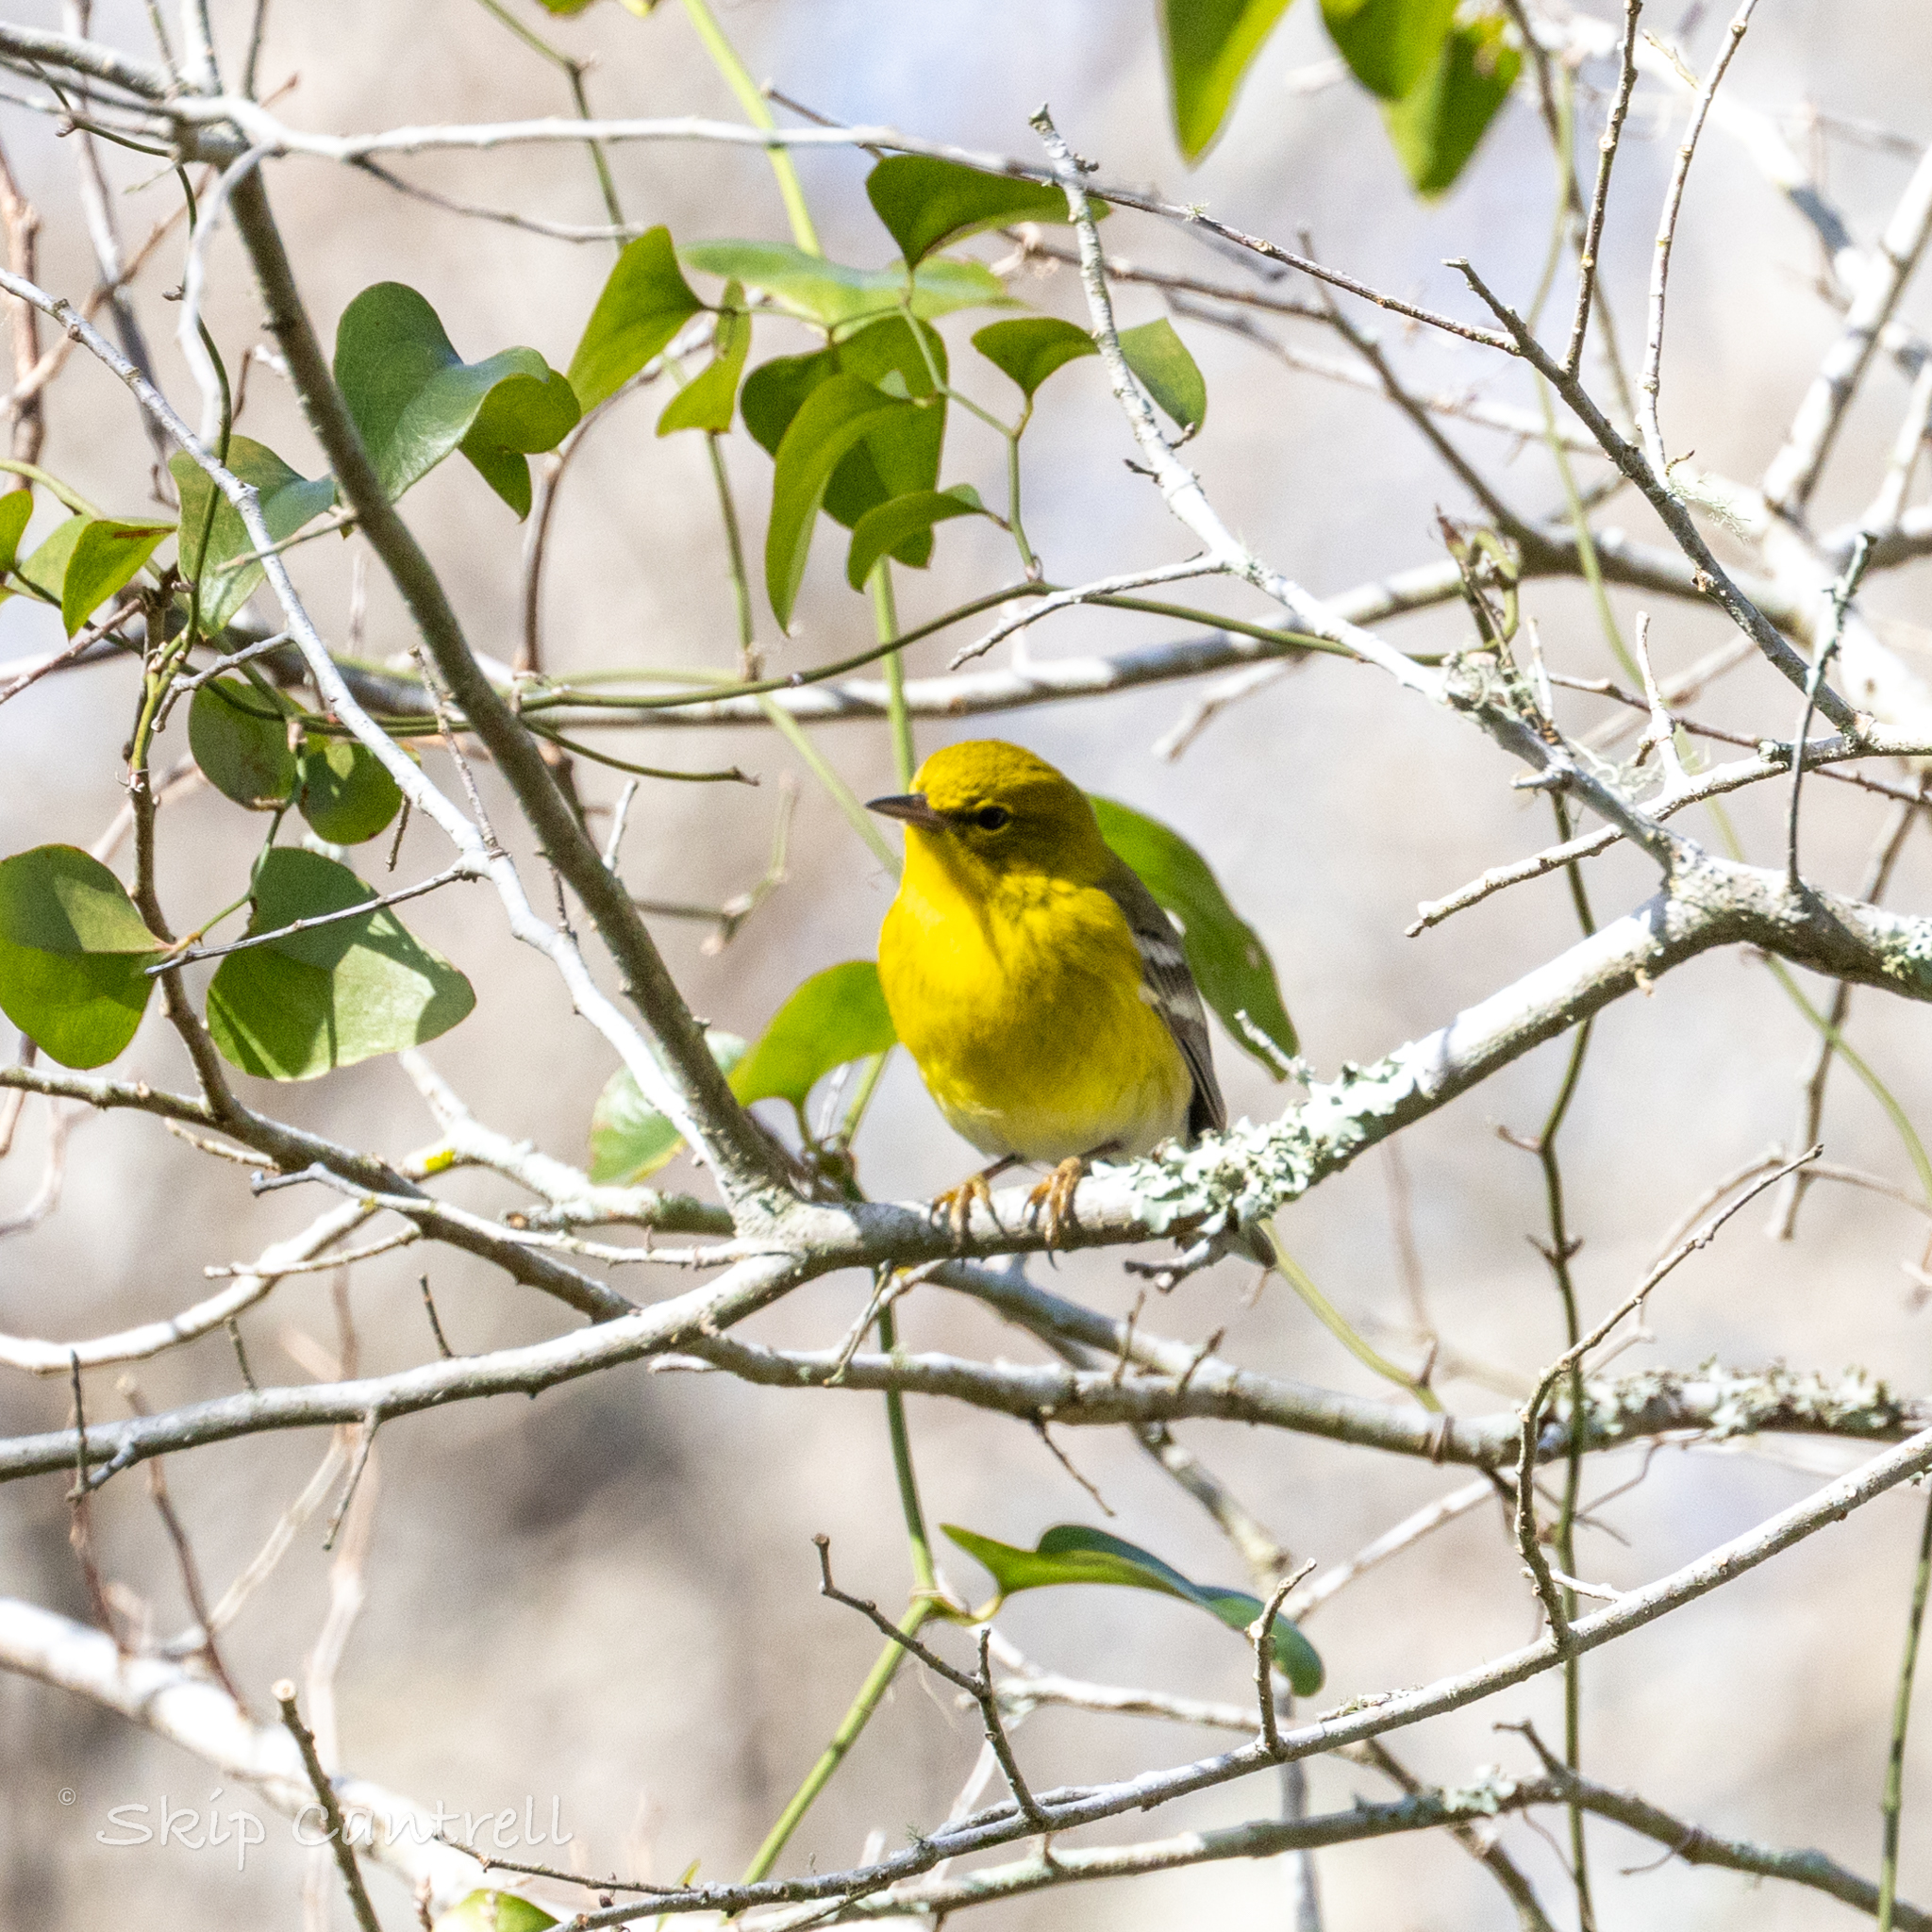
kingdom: Animalia
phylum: Chordata
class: Aves
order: Passeriformes
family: Parulidae
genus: Setophaga
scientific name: Setophaga pinus
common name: Pine warbler
